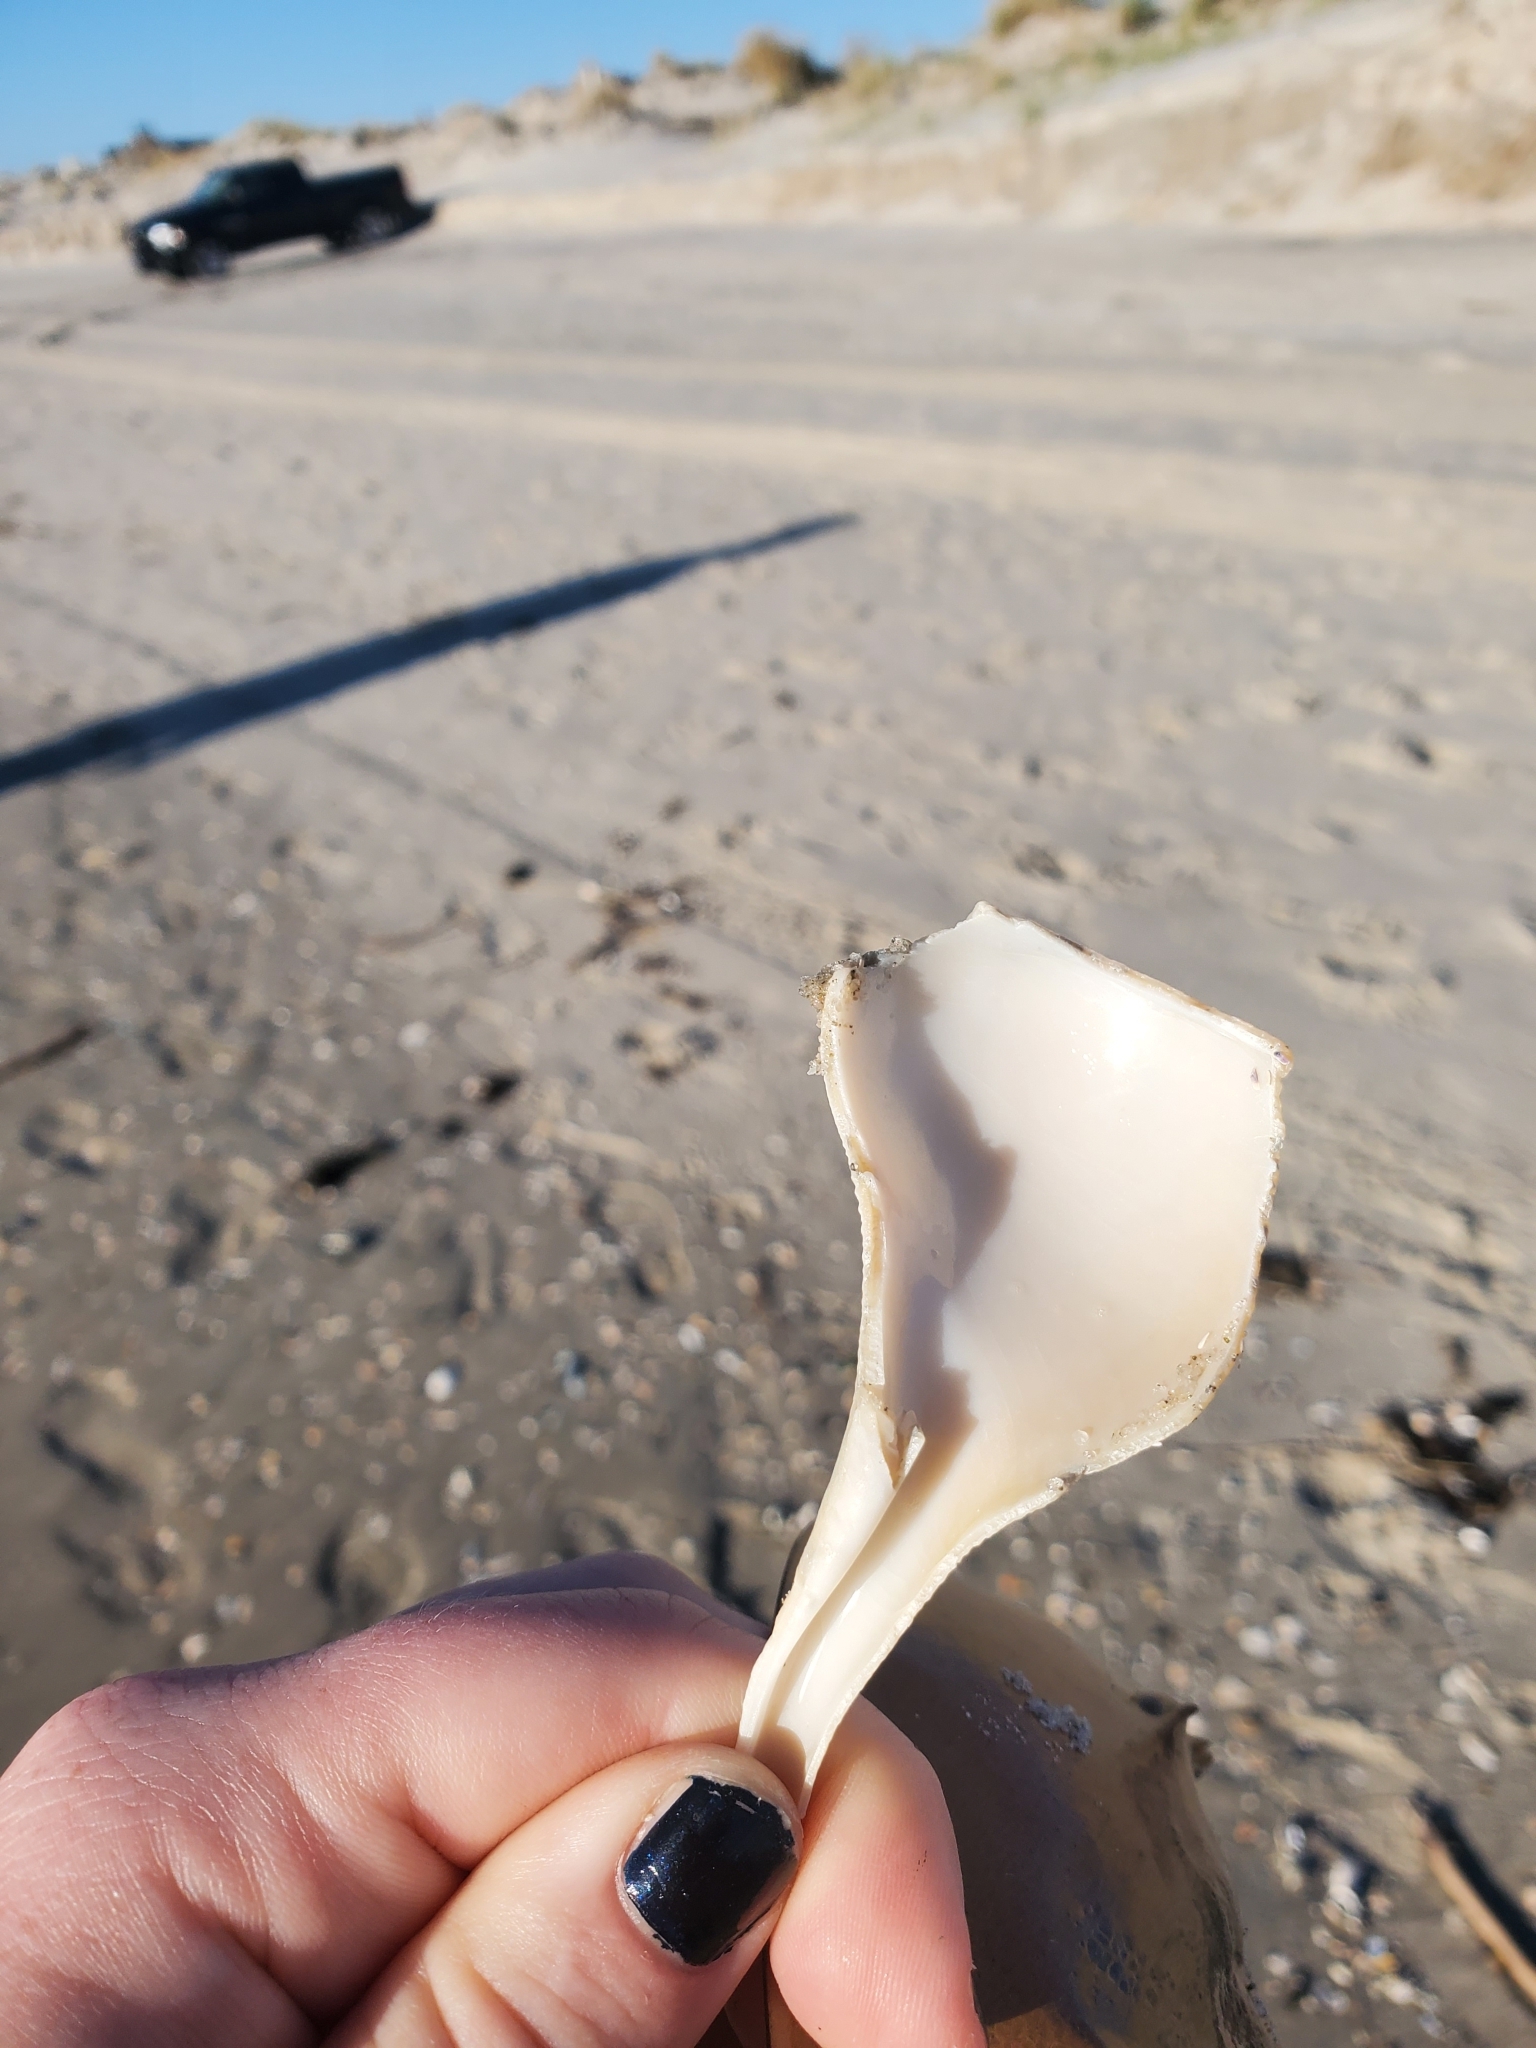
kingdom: Animalia
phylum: Mollusca
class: Gastropoda
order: Neogastropoda
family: Busyconidae
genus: Busycotypus
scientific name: Busycotypus canaliculatus
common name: Channeled whelk
